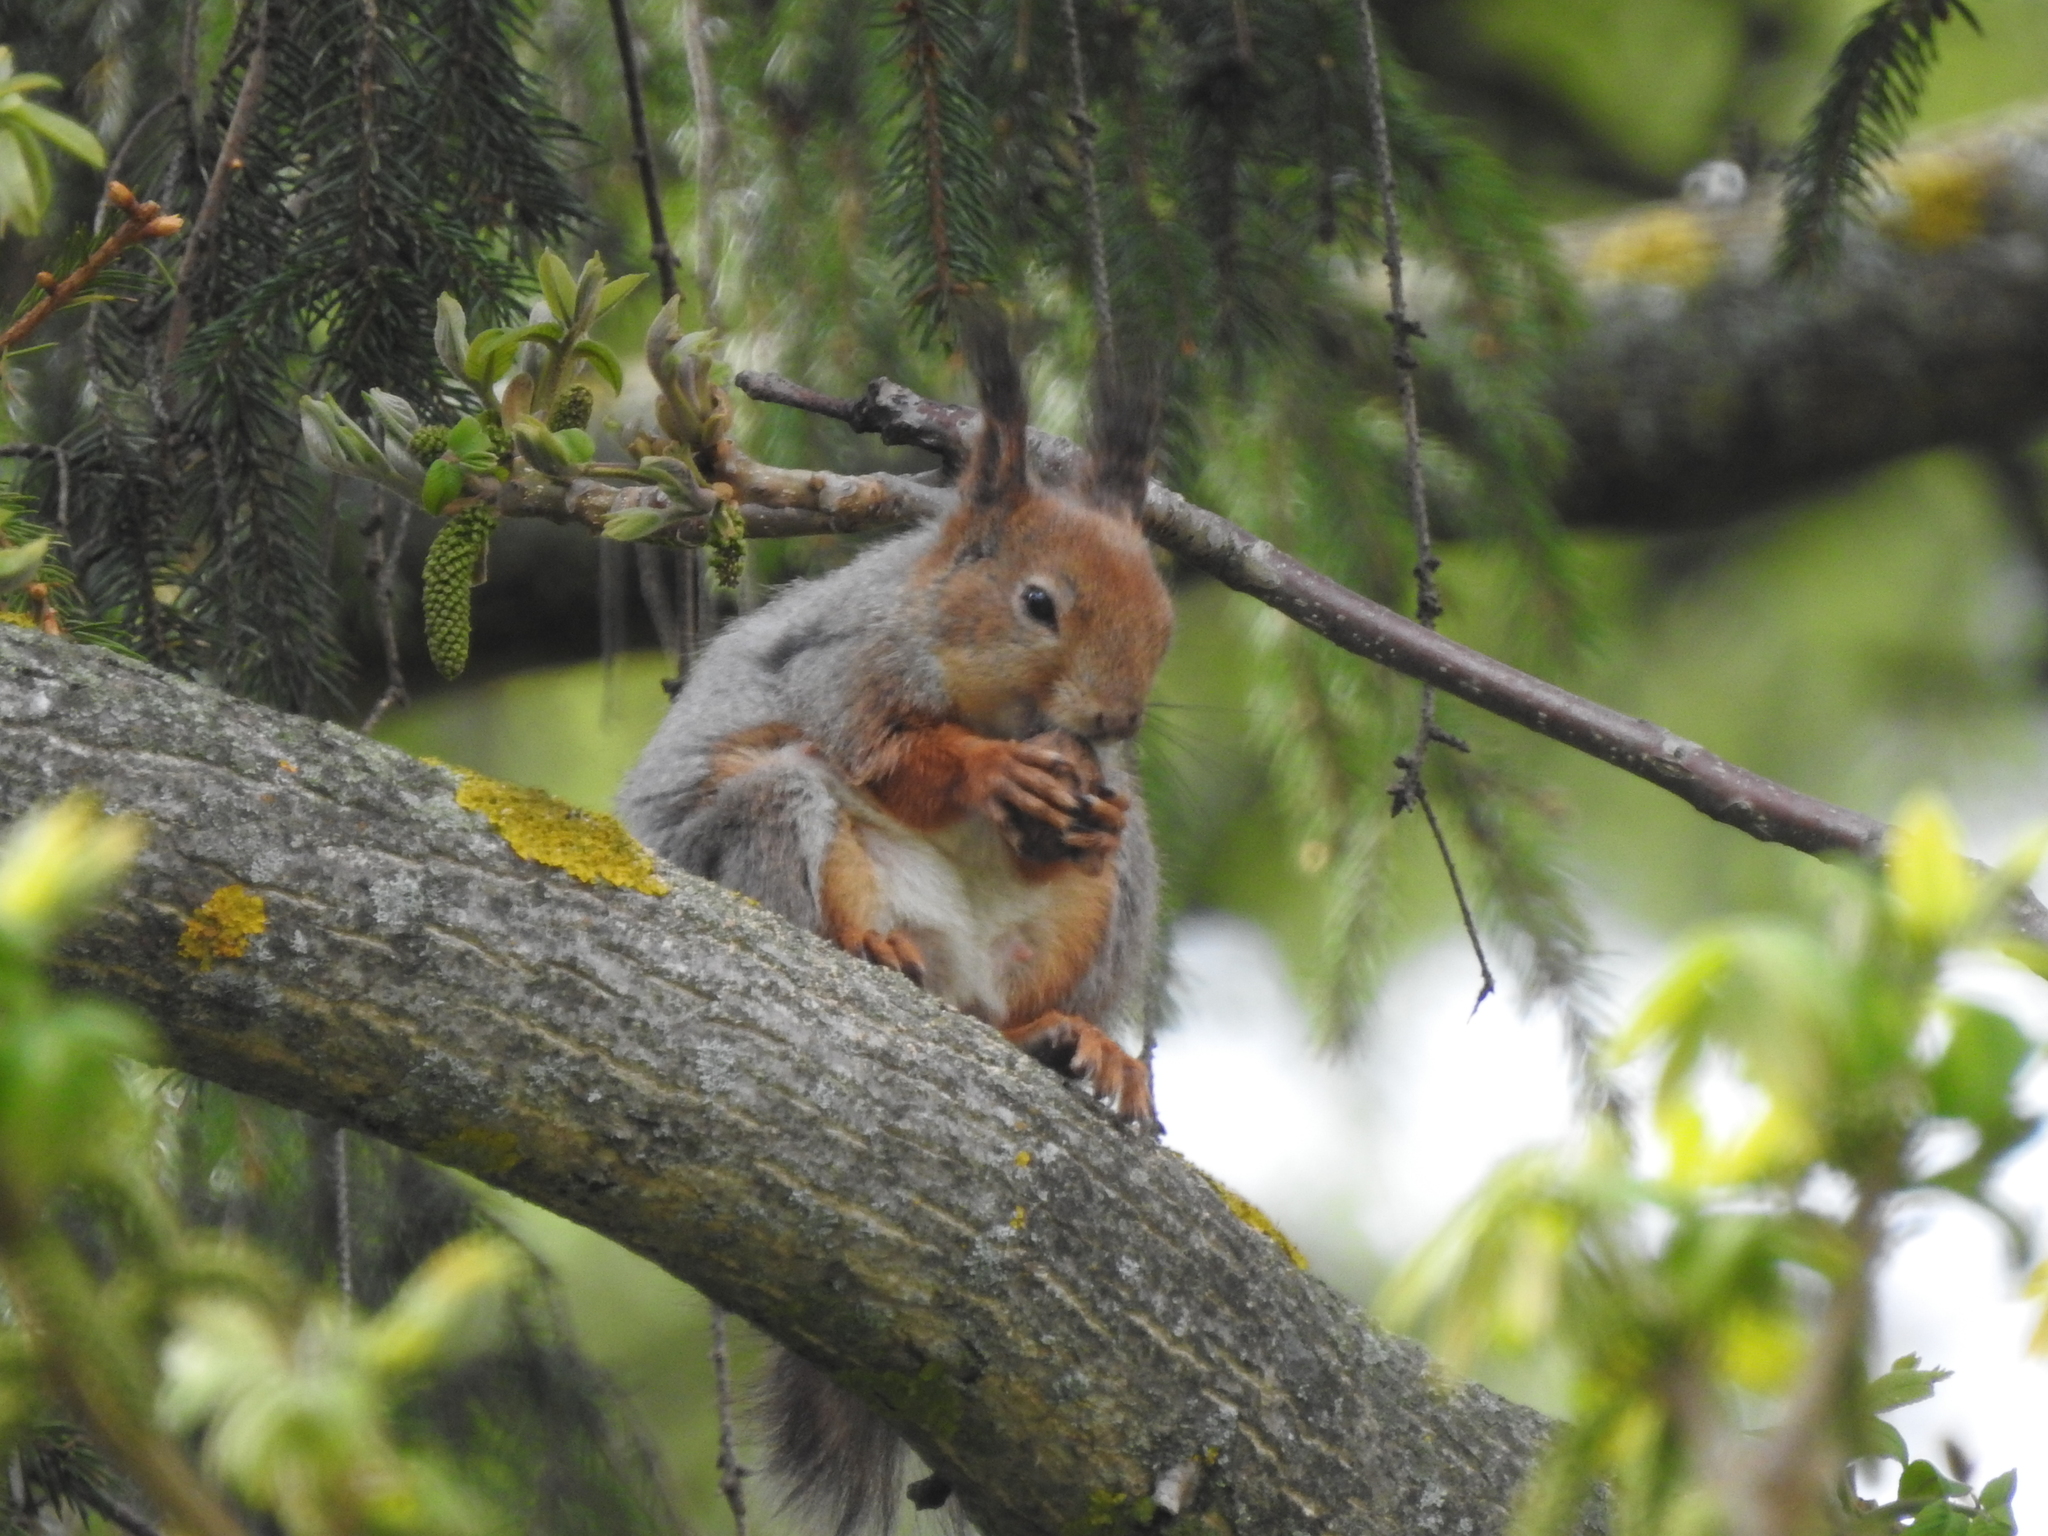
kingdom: Animalia
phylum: Chordata
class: Mammalia
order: Rodentia
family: Sciuridae
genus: Sciurus
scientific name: Sciurus vulgaris
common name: Eurasian red squirrel
